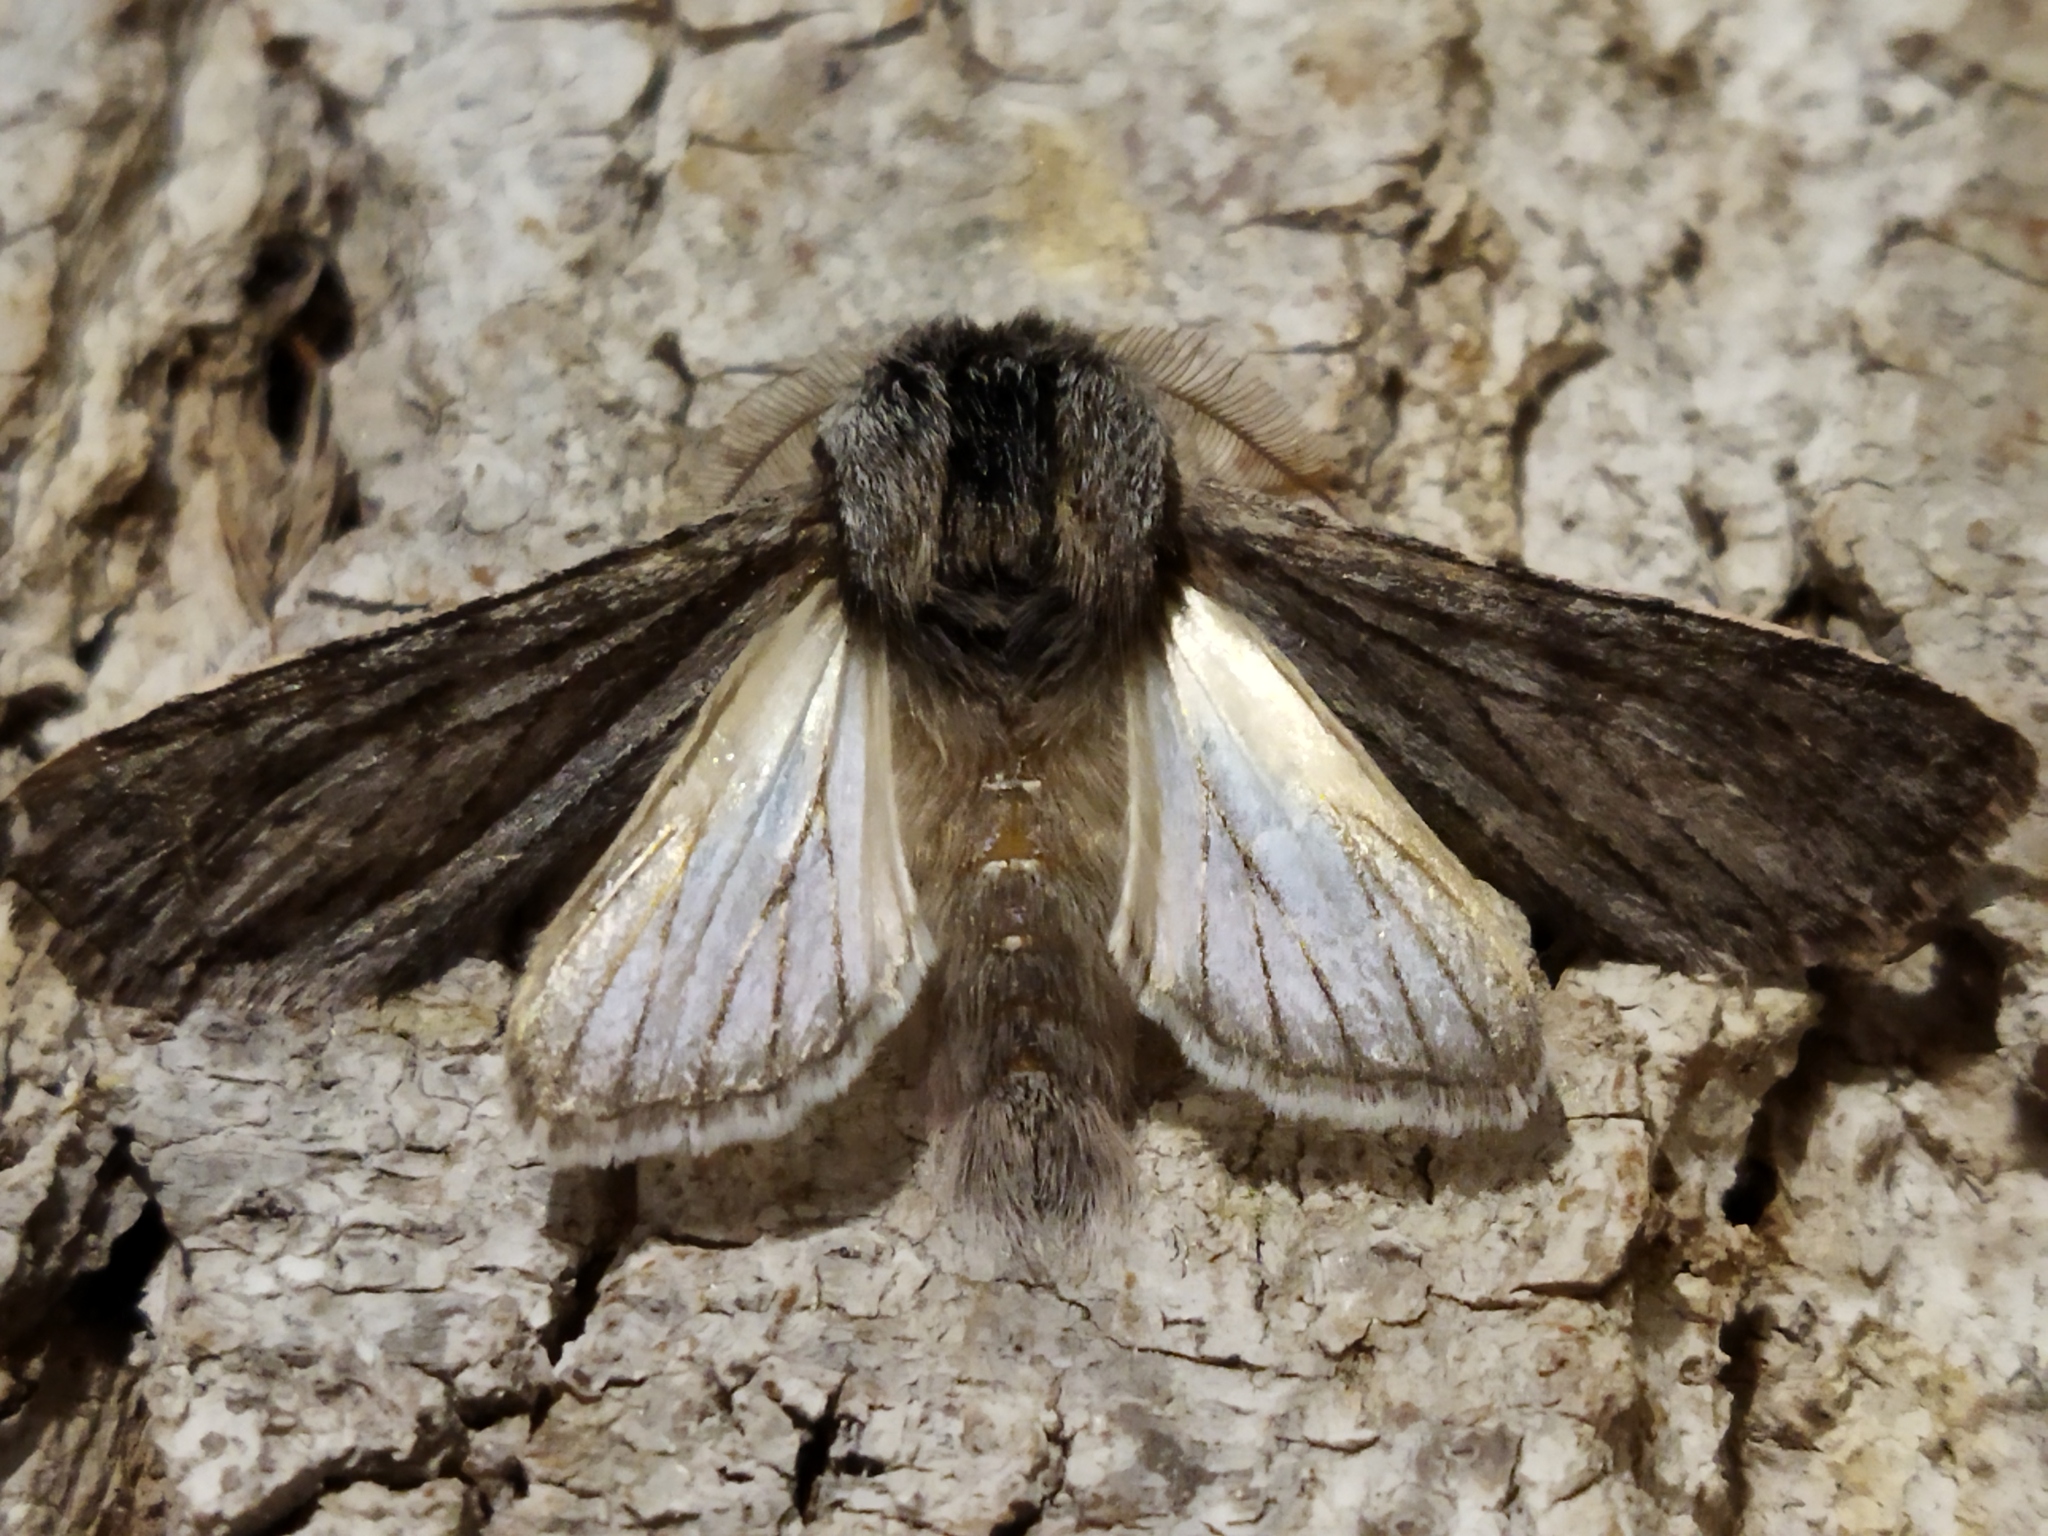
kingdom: Animalia
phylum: Arthropoda
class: Insecta
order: Lepidoptera
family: Notodontidae
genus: Dicranura
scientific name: Dicranura ulmi
